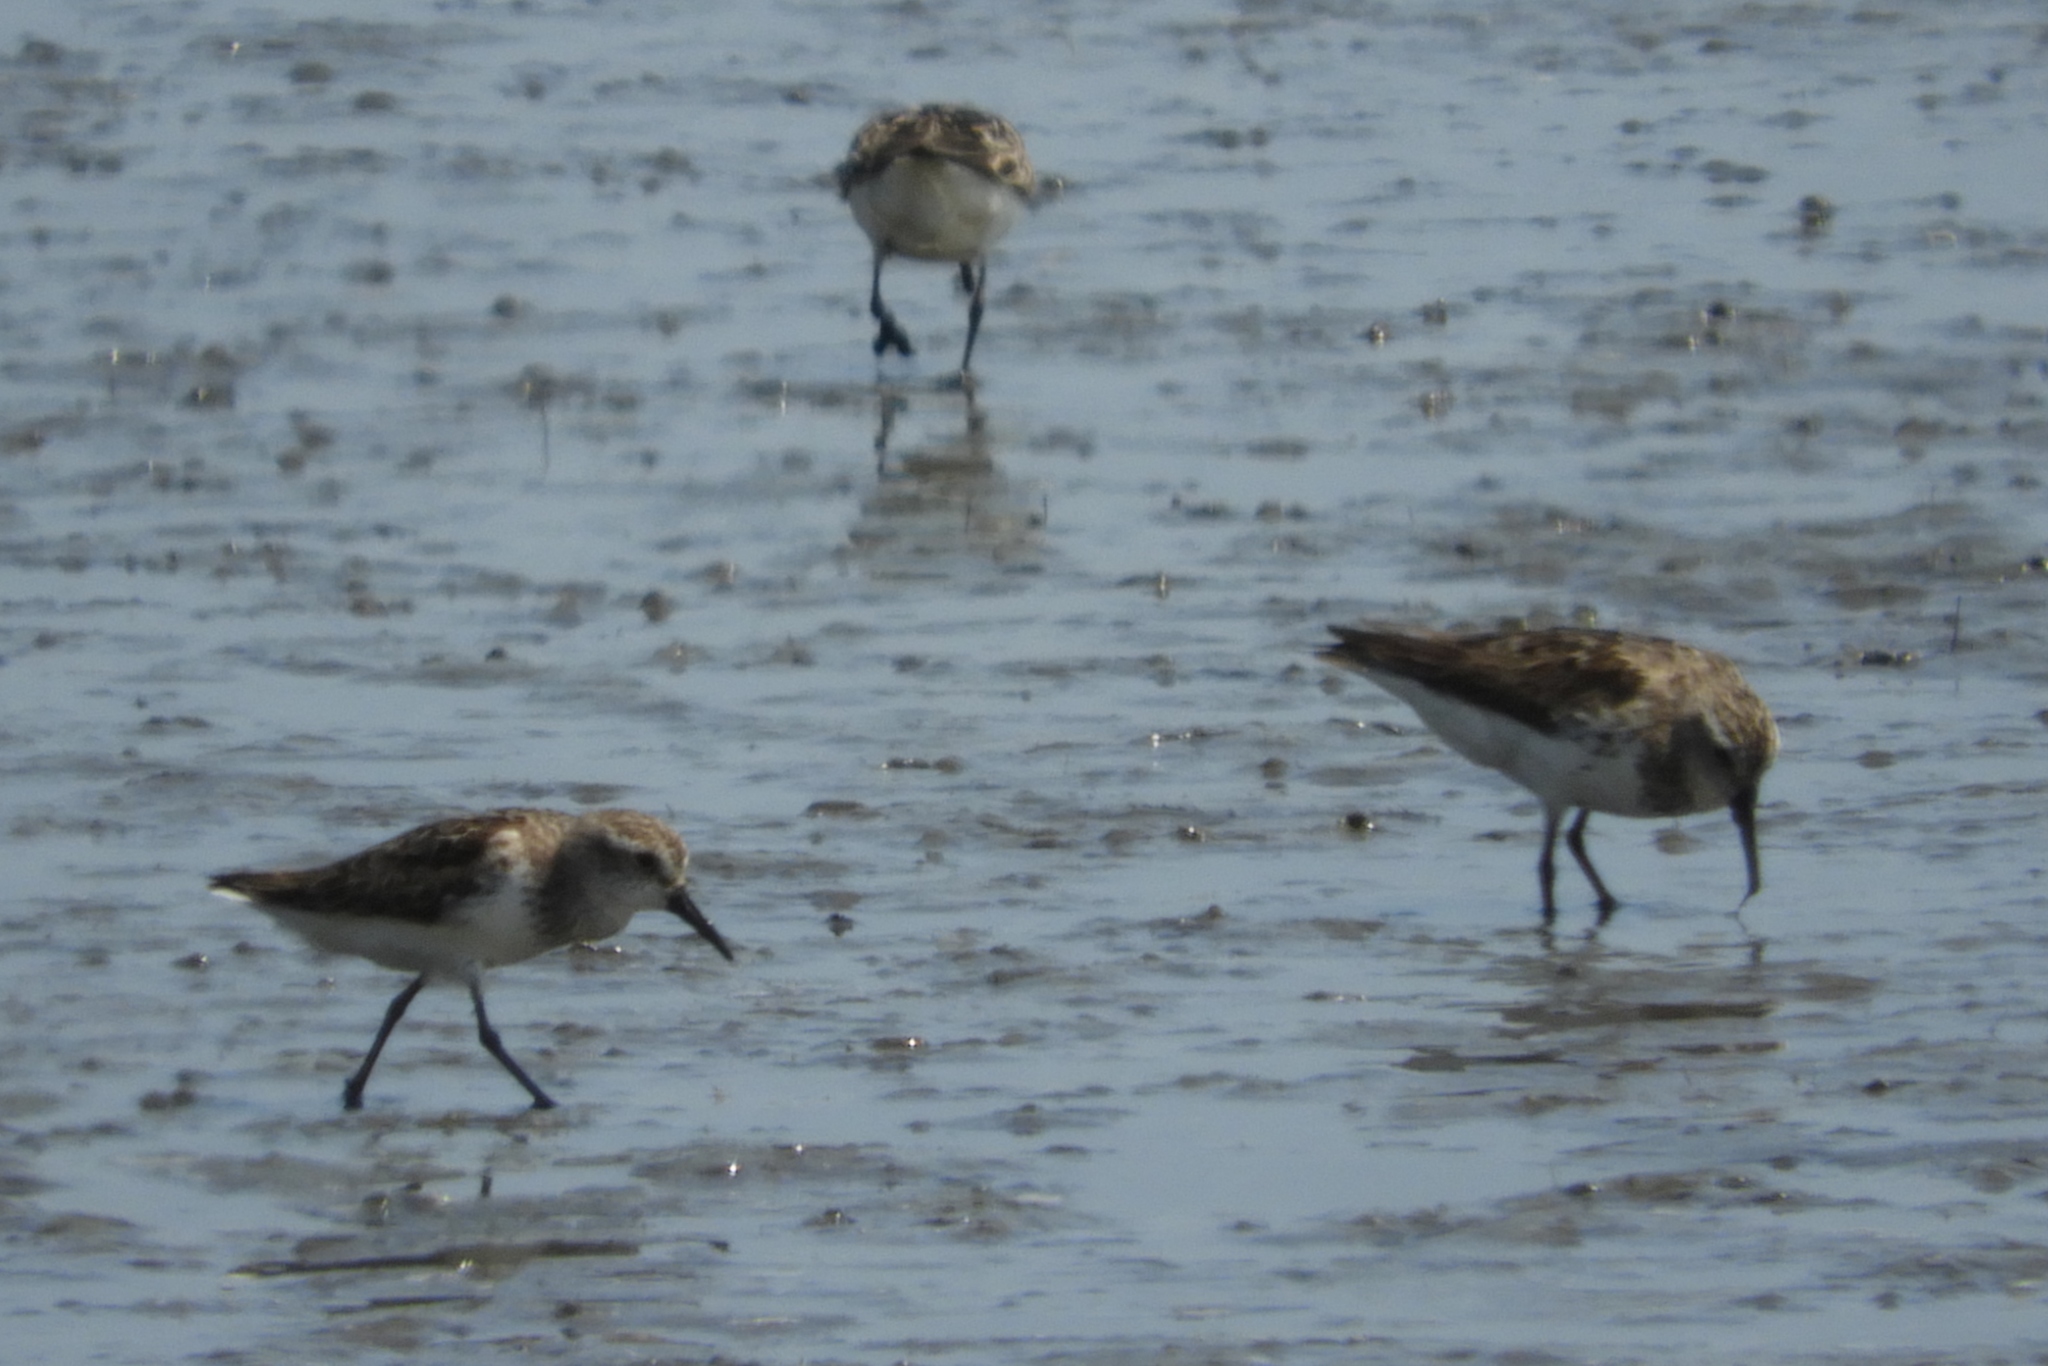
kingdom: Animalia
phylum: Chordata
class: Aves
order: Charadriiformes
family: Scolopacidae
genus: Calidris
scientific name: Calidris pusilla
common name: Semipalmated sandpiper
